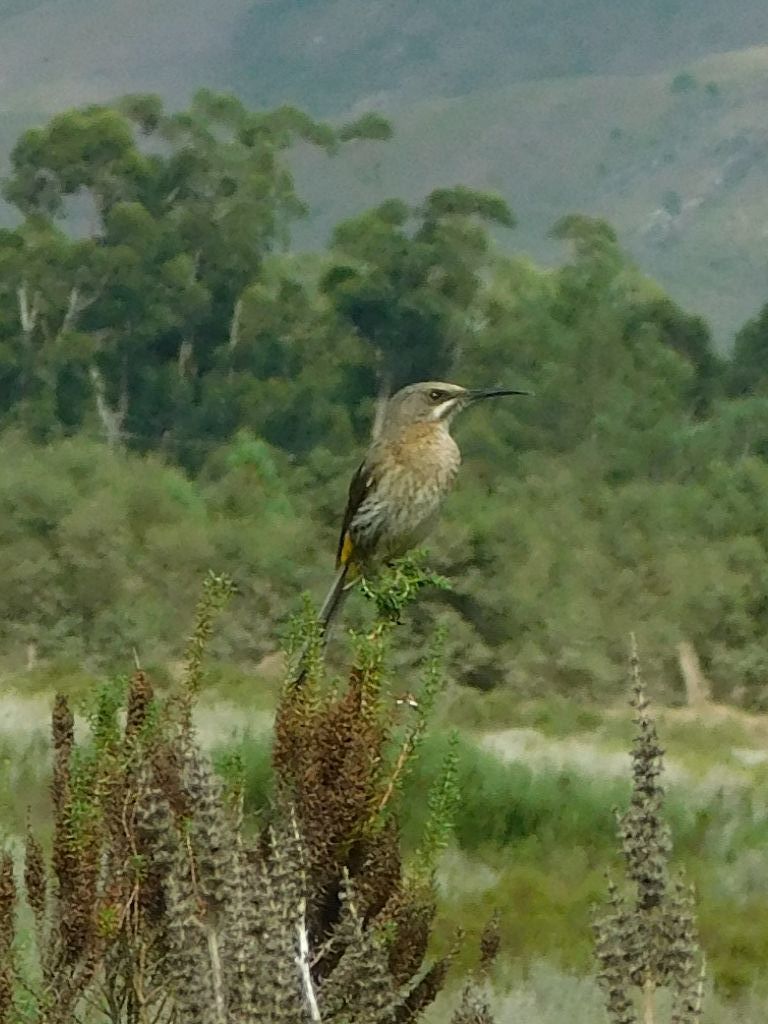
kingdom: Animalia
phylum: Chordata
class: Aves
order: Passeriformes
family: Promeropidae
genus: Promerops
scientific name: Promerops cafer
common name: Cape sugarbird
